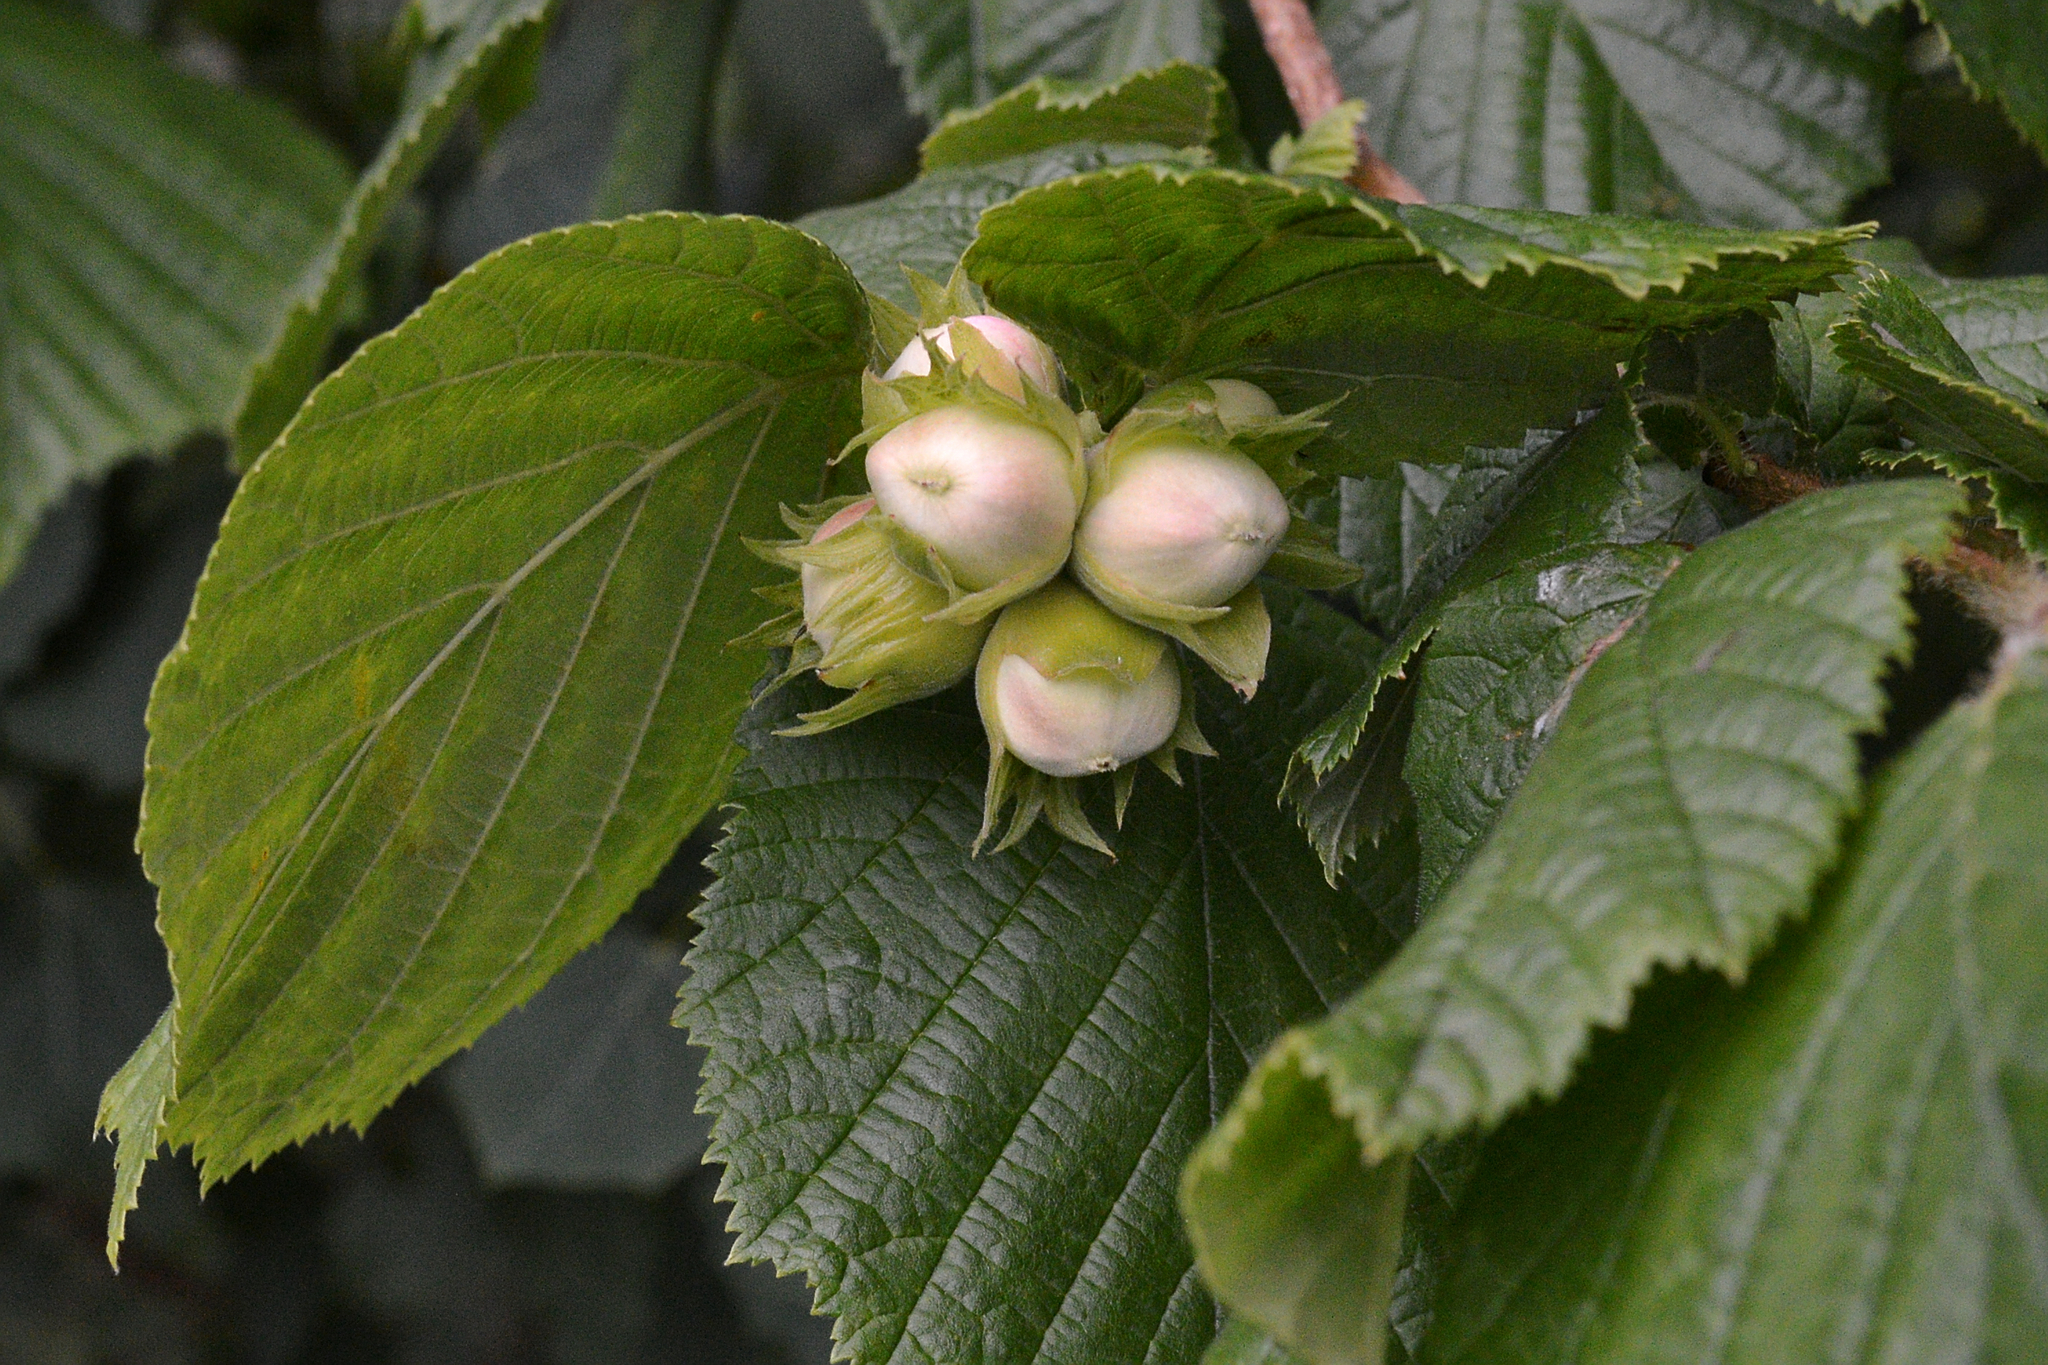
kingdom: Plantae
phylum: Tracheophyta
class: Magnoliopsida
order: Fagales
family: Betulaceae
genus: Corylus
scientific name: Corylus avellana
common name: European hazel
